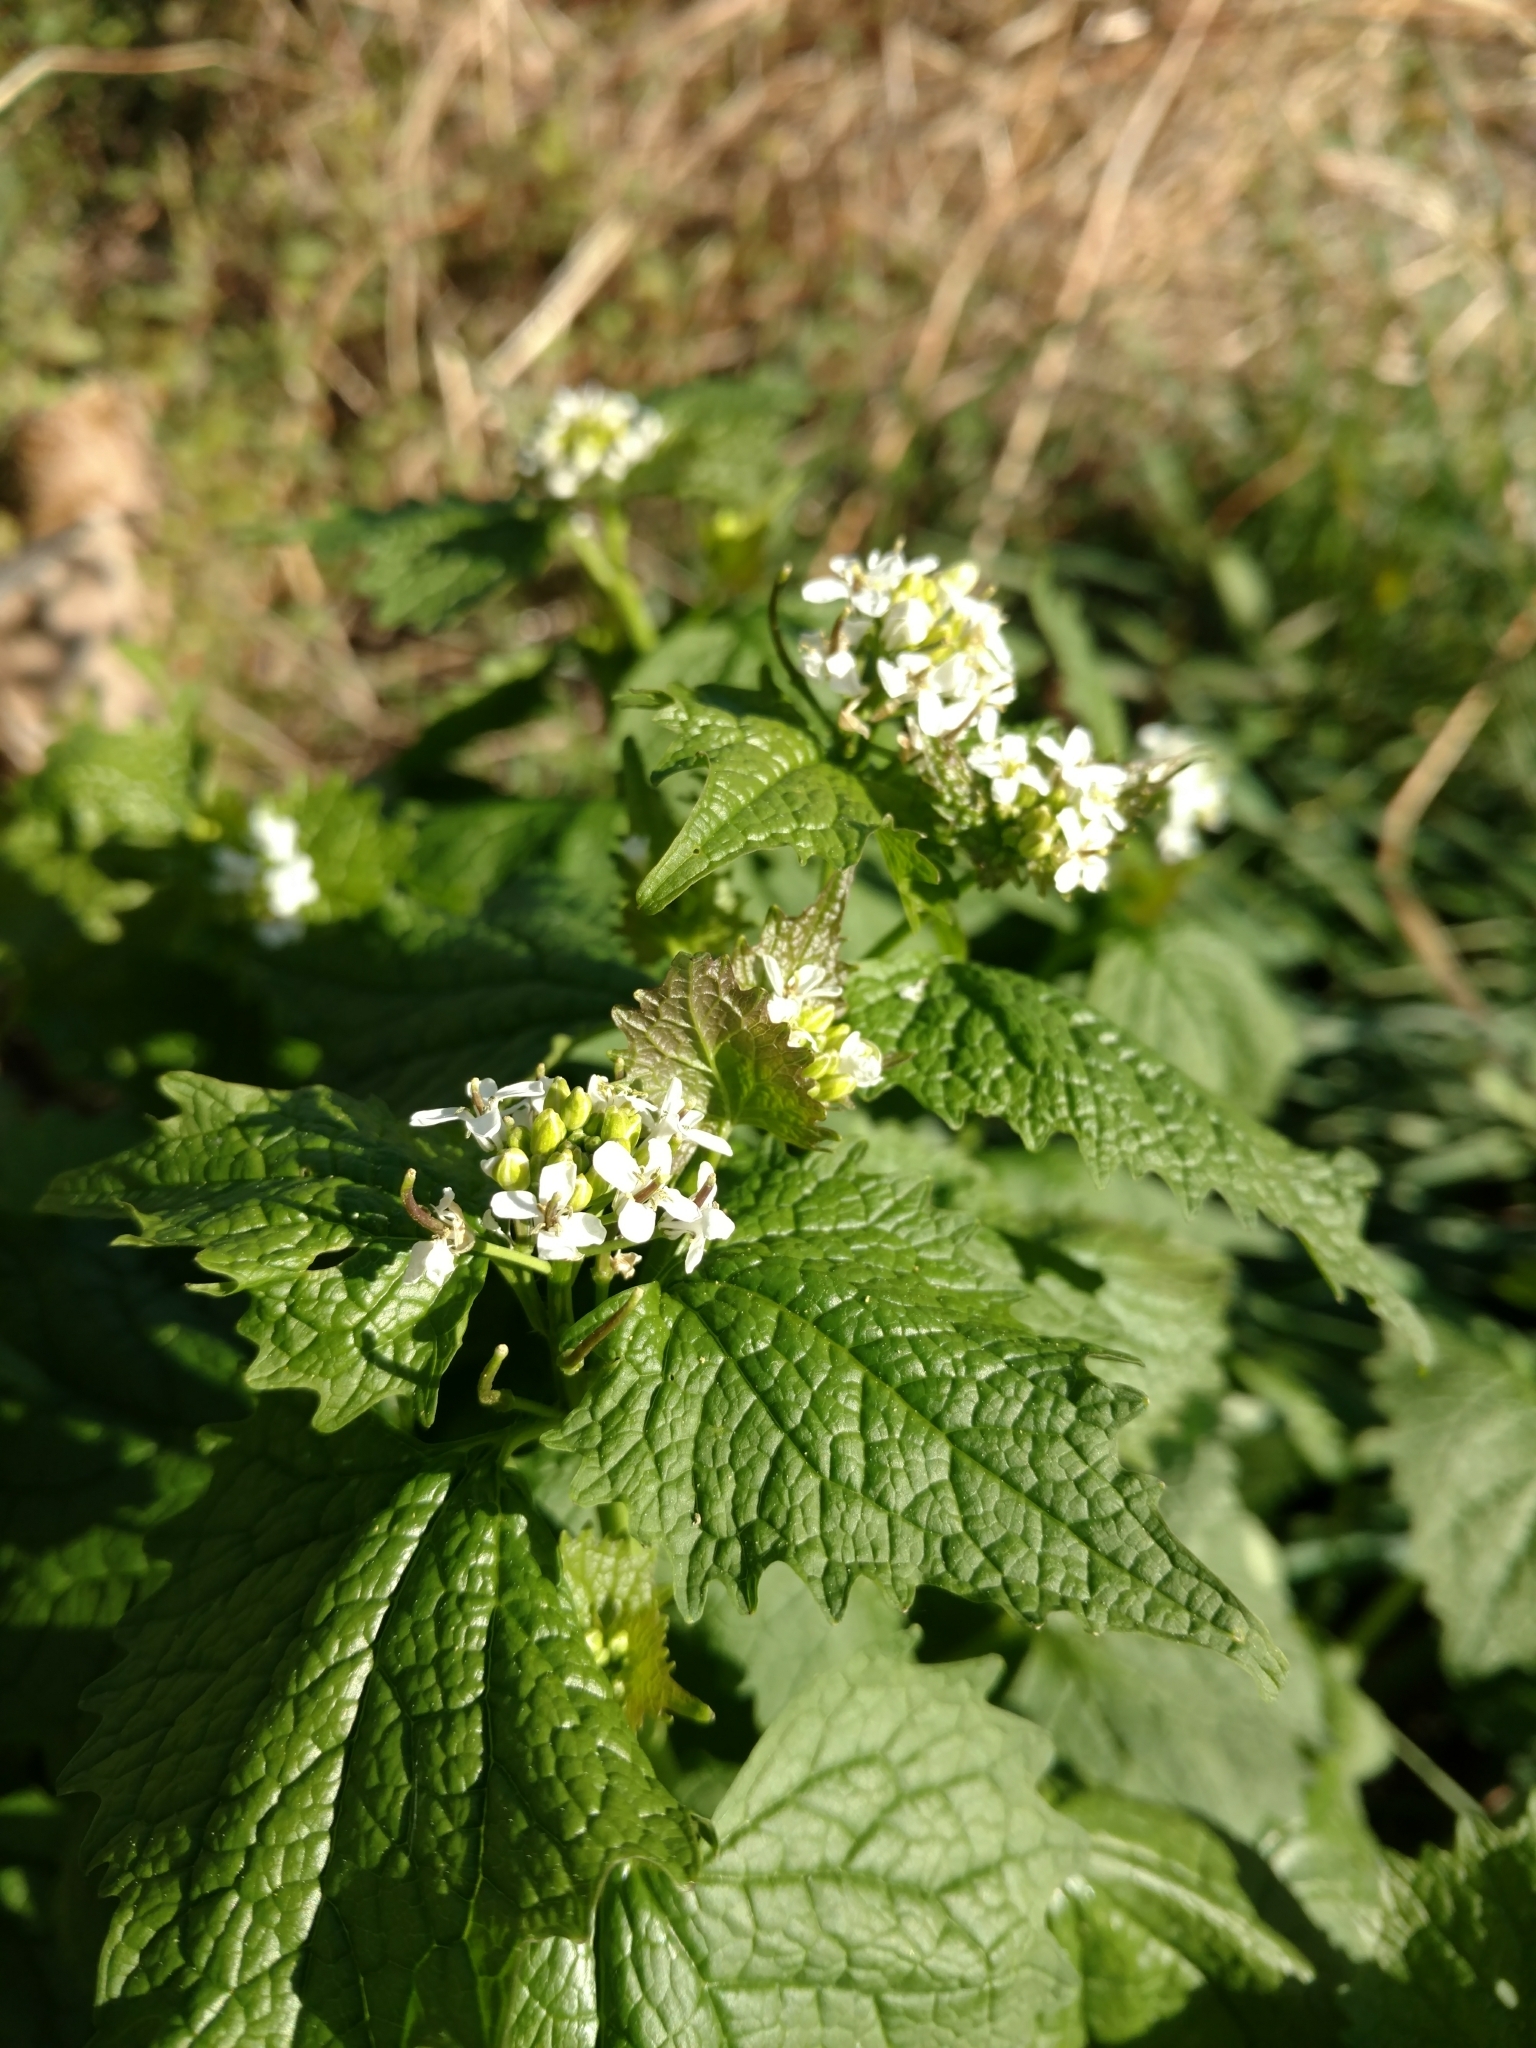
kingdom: Plantae
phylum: Tracheophyta
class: Magnoliopsida
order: Brassicales
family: Brassicaceae
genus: Alliaria
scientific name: Alliaria petiolata
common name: Garlic mustard
